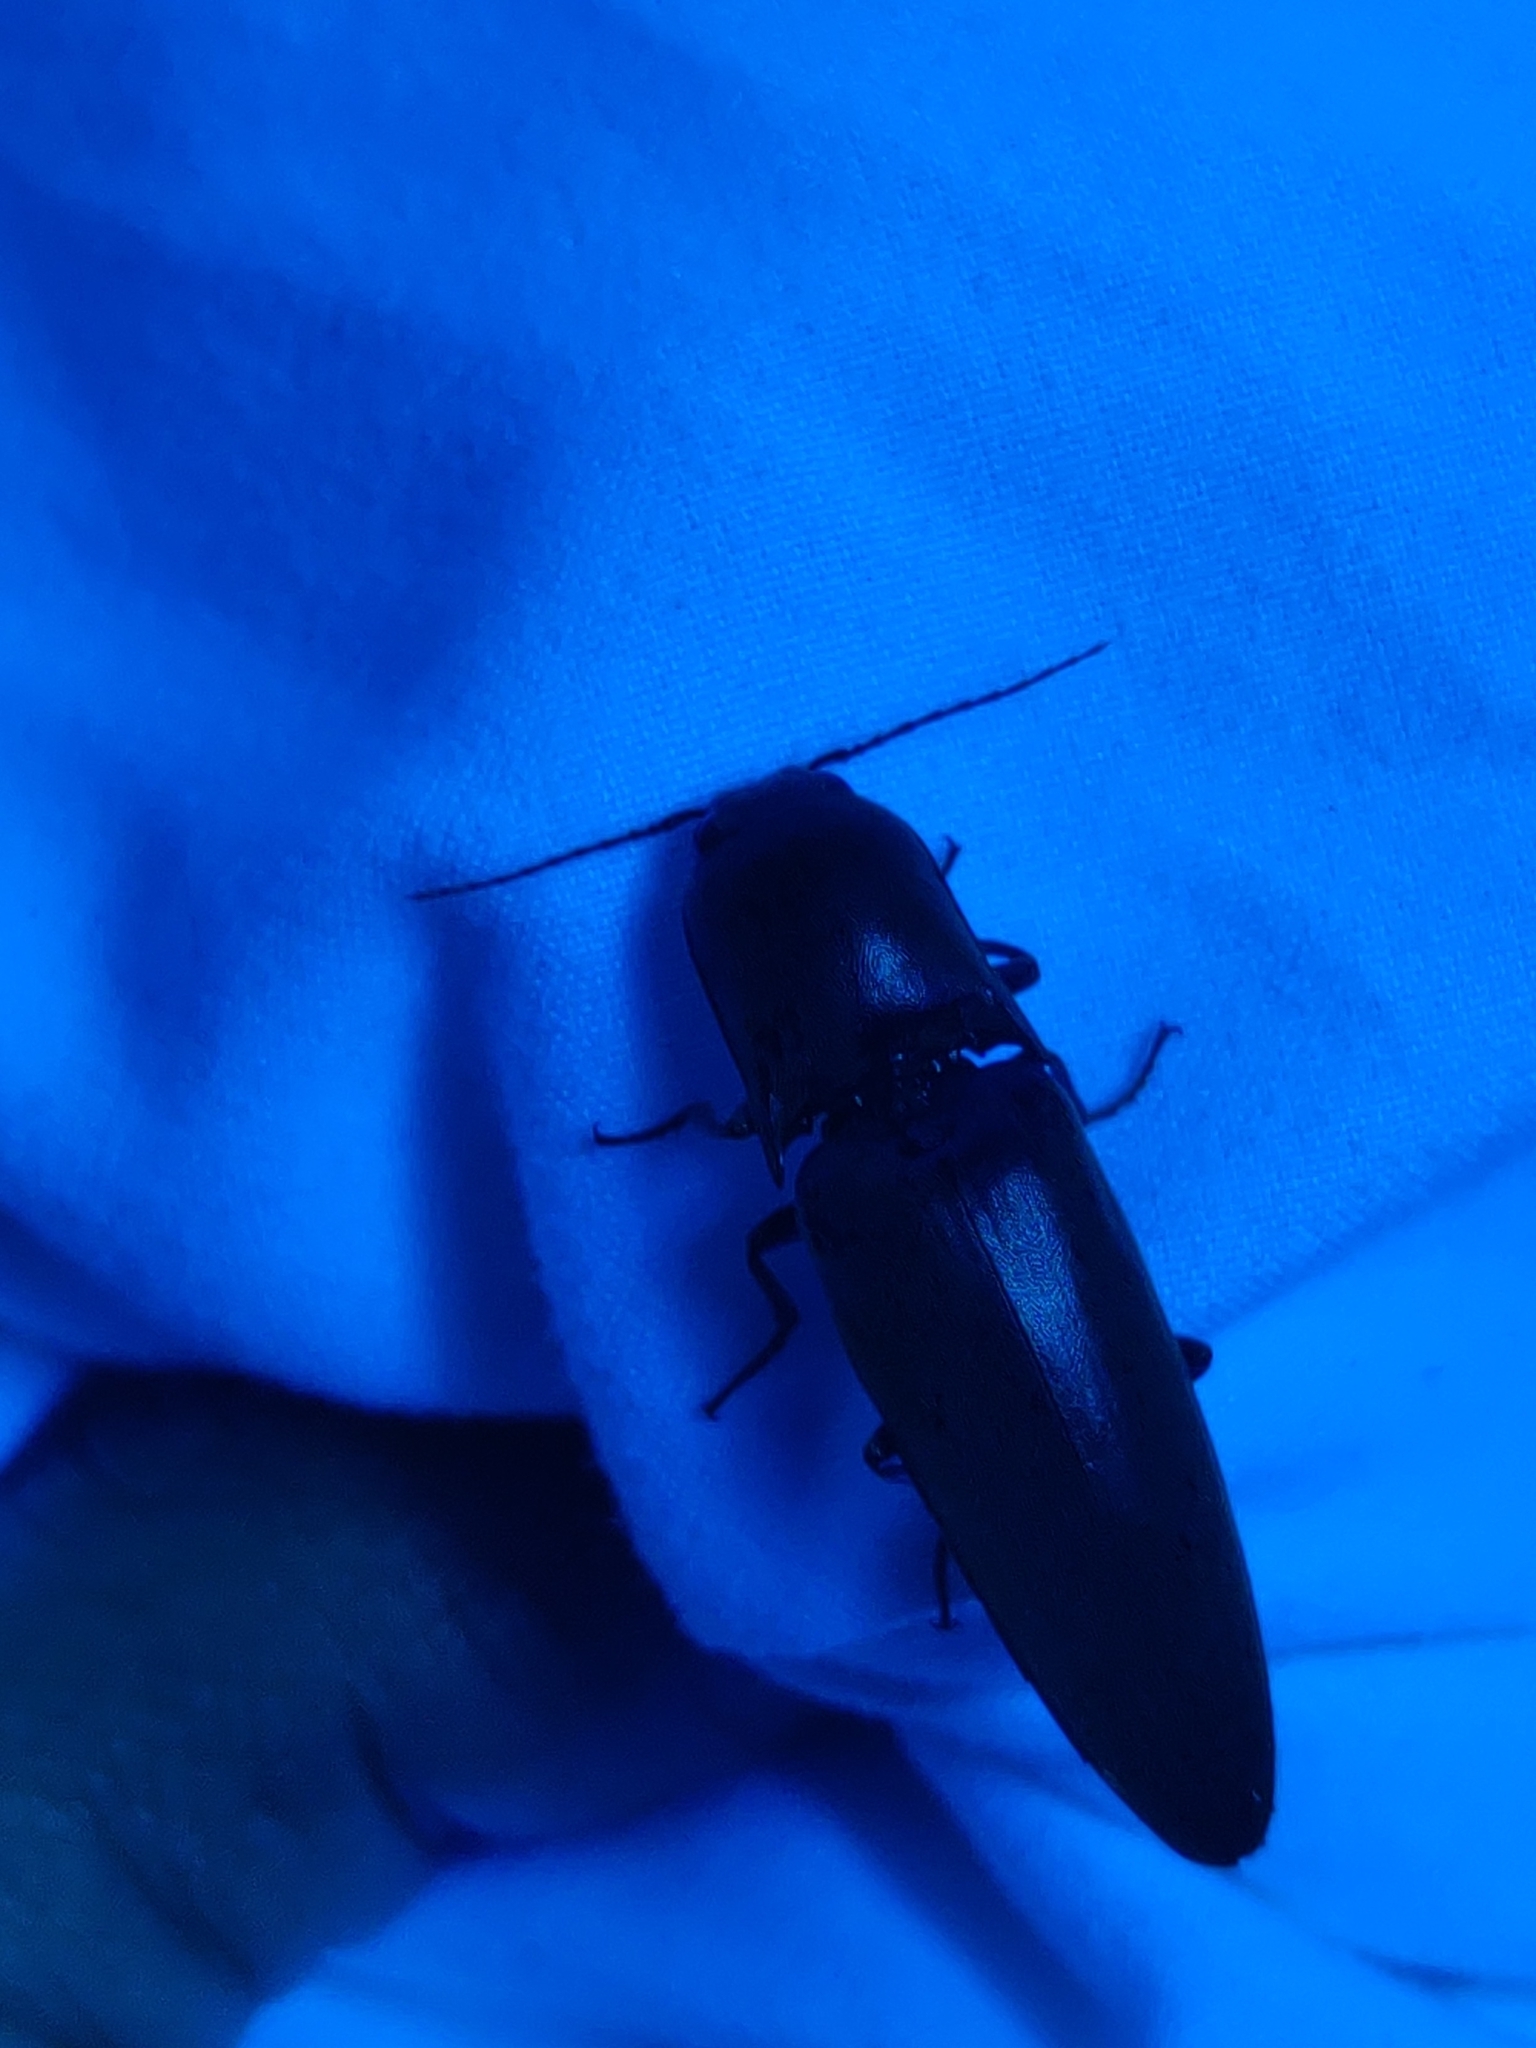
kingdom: Animalia
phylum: Arthropoda
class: Insecta
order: Coleoptera
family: Elateridae
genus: Orthostethus
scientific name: Orthostethus infuscatus
